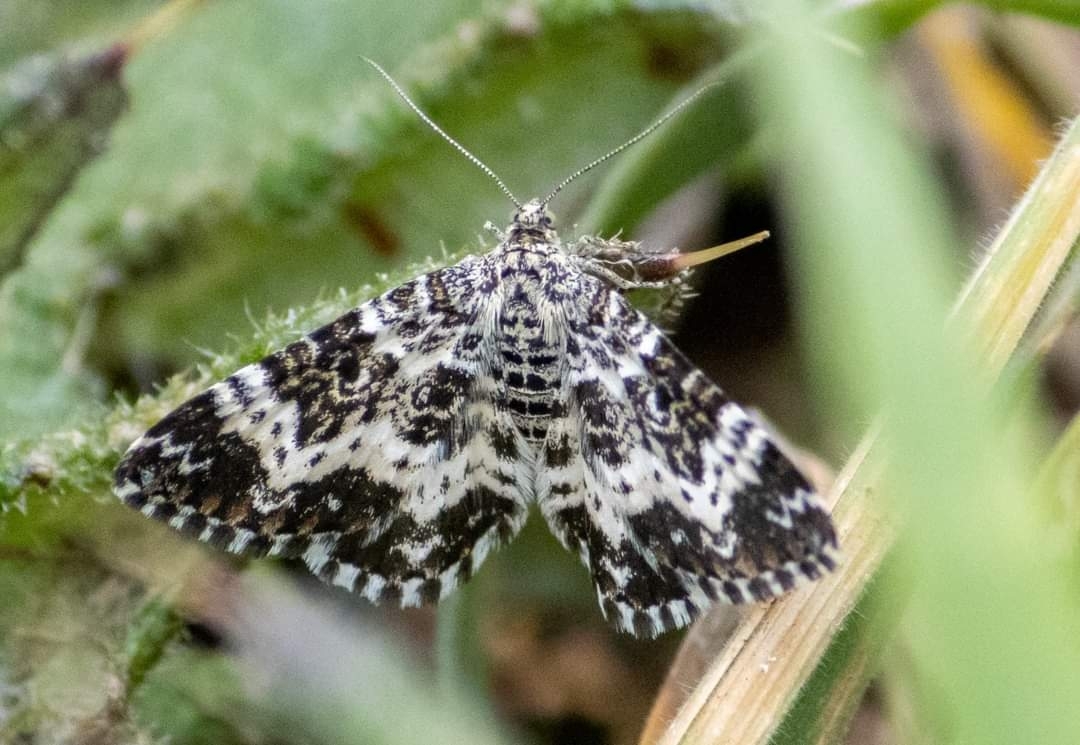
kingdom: Animalia
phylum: Arthropoda
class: Insecta
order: Lepidoptera
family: Geometridae
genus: Epirrhoe
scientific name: Epirrhoe tristata
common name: Small argent & sable
